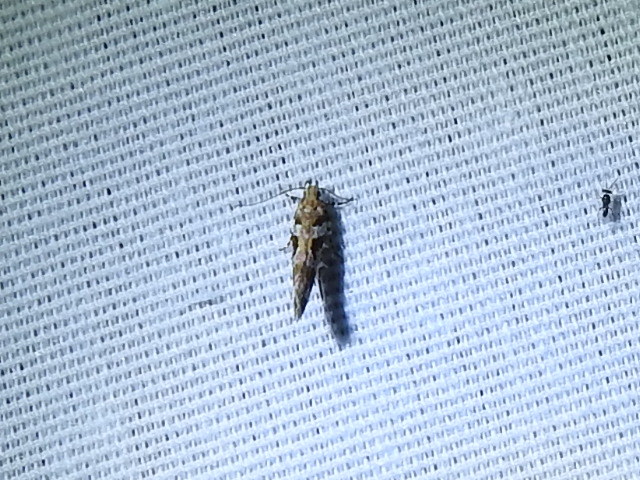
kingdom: Animalia
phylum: Arthropoda
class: Insecta
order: Lepidoptera
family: Gelechiidae
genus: Aristotelia
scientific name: Aristotelia roseosuffusella
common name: Pink-washed aristotelia moth
